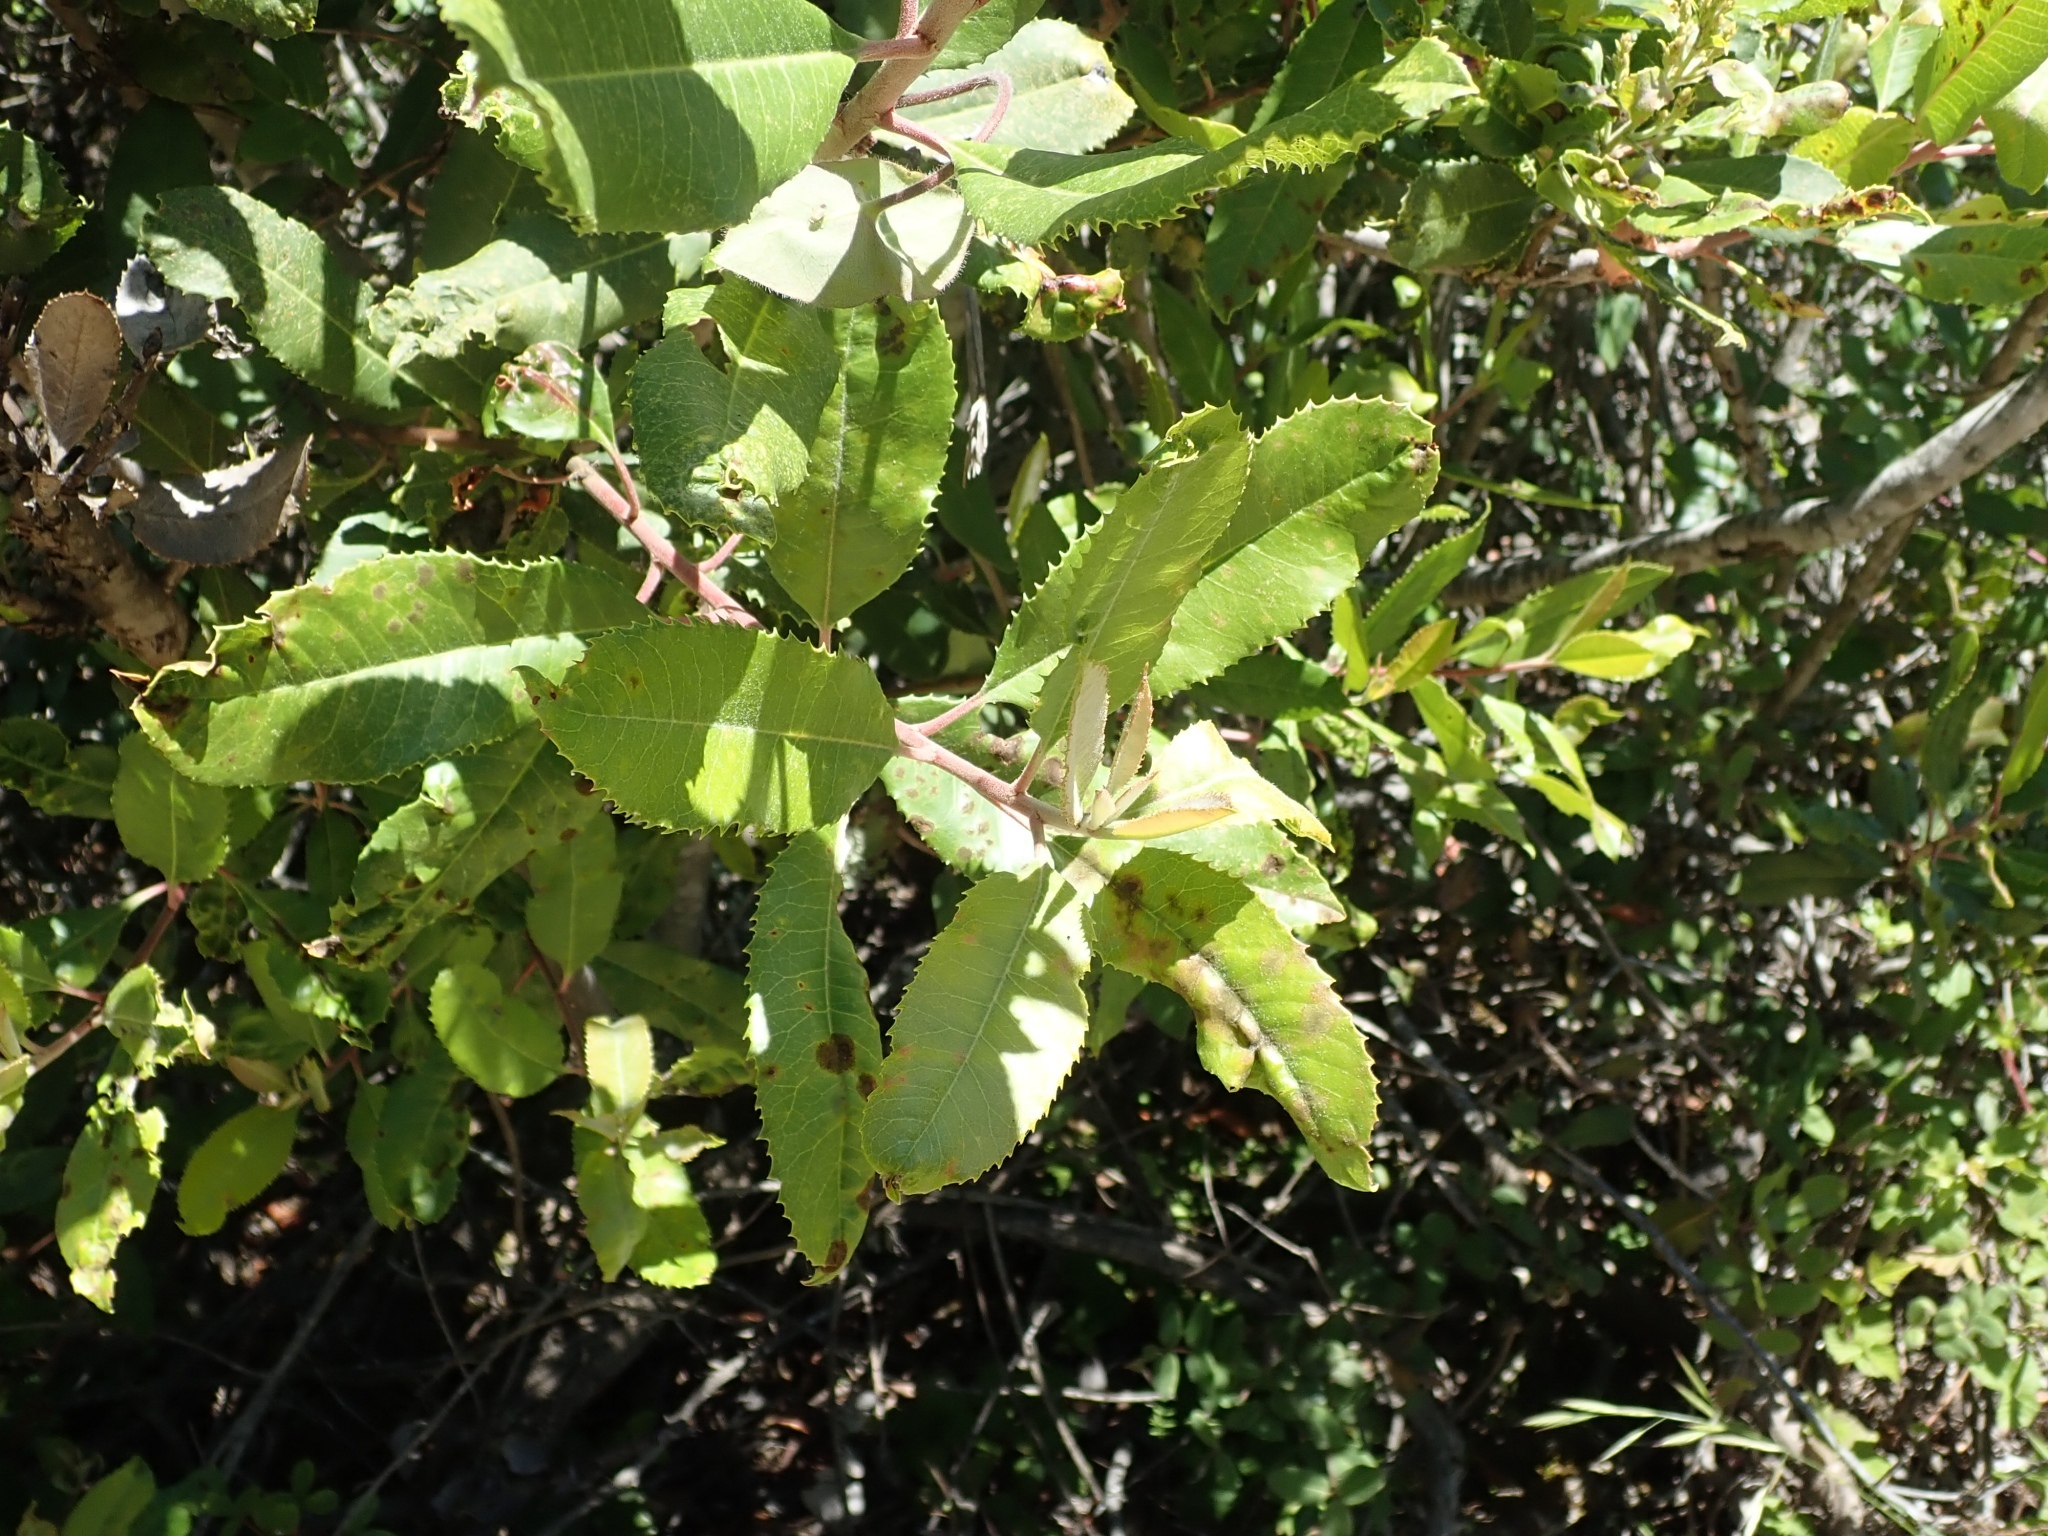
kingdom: Plantae
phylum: Tracheophyta
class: Magnoliopsida
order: Rosales
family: Rosaceae
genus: Heteromeles
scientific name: Heteromeles arbutifolia
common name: California-holly
